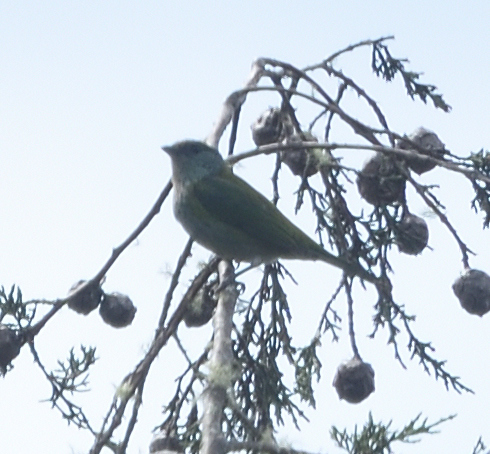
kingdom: Animalia
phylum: Chordata
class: Aves
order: Passeriformes
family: Thraupidae
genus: Stilpnia
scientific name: Stilpnia heinei
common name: Black-capped tanager
